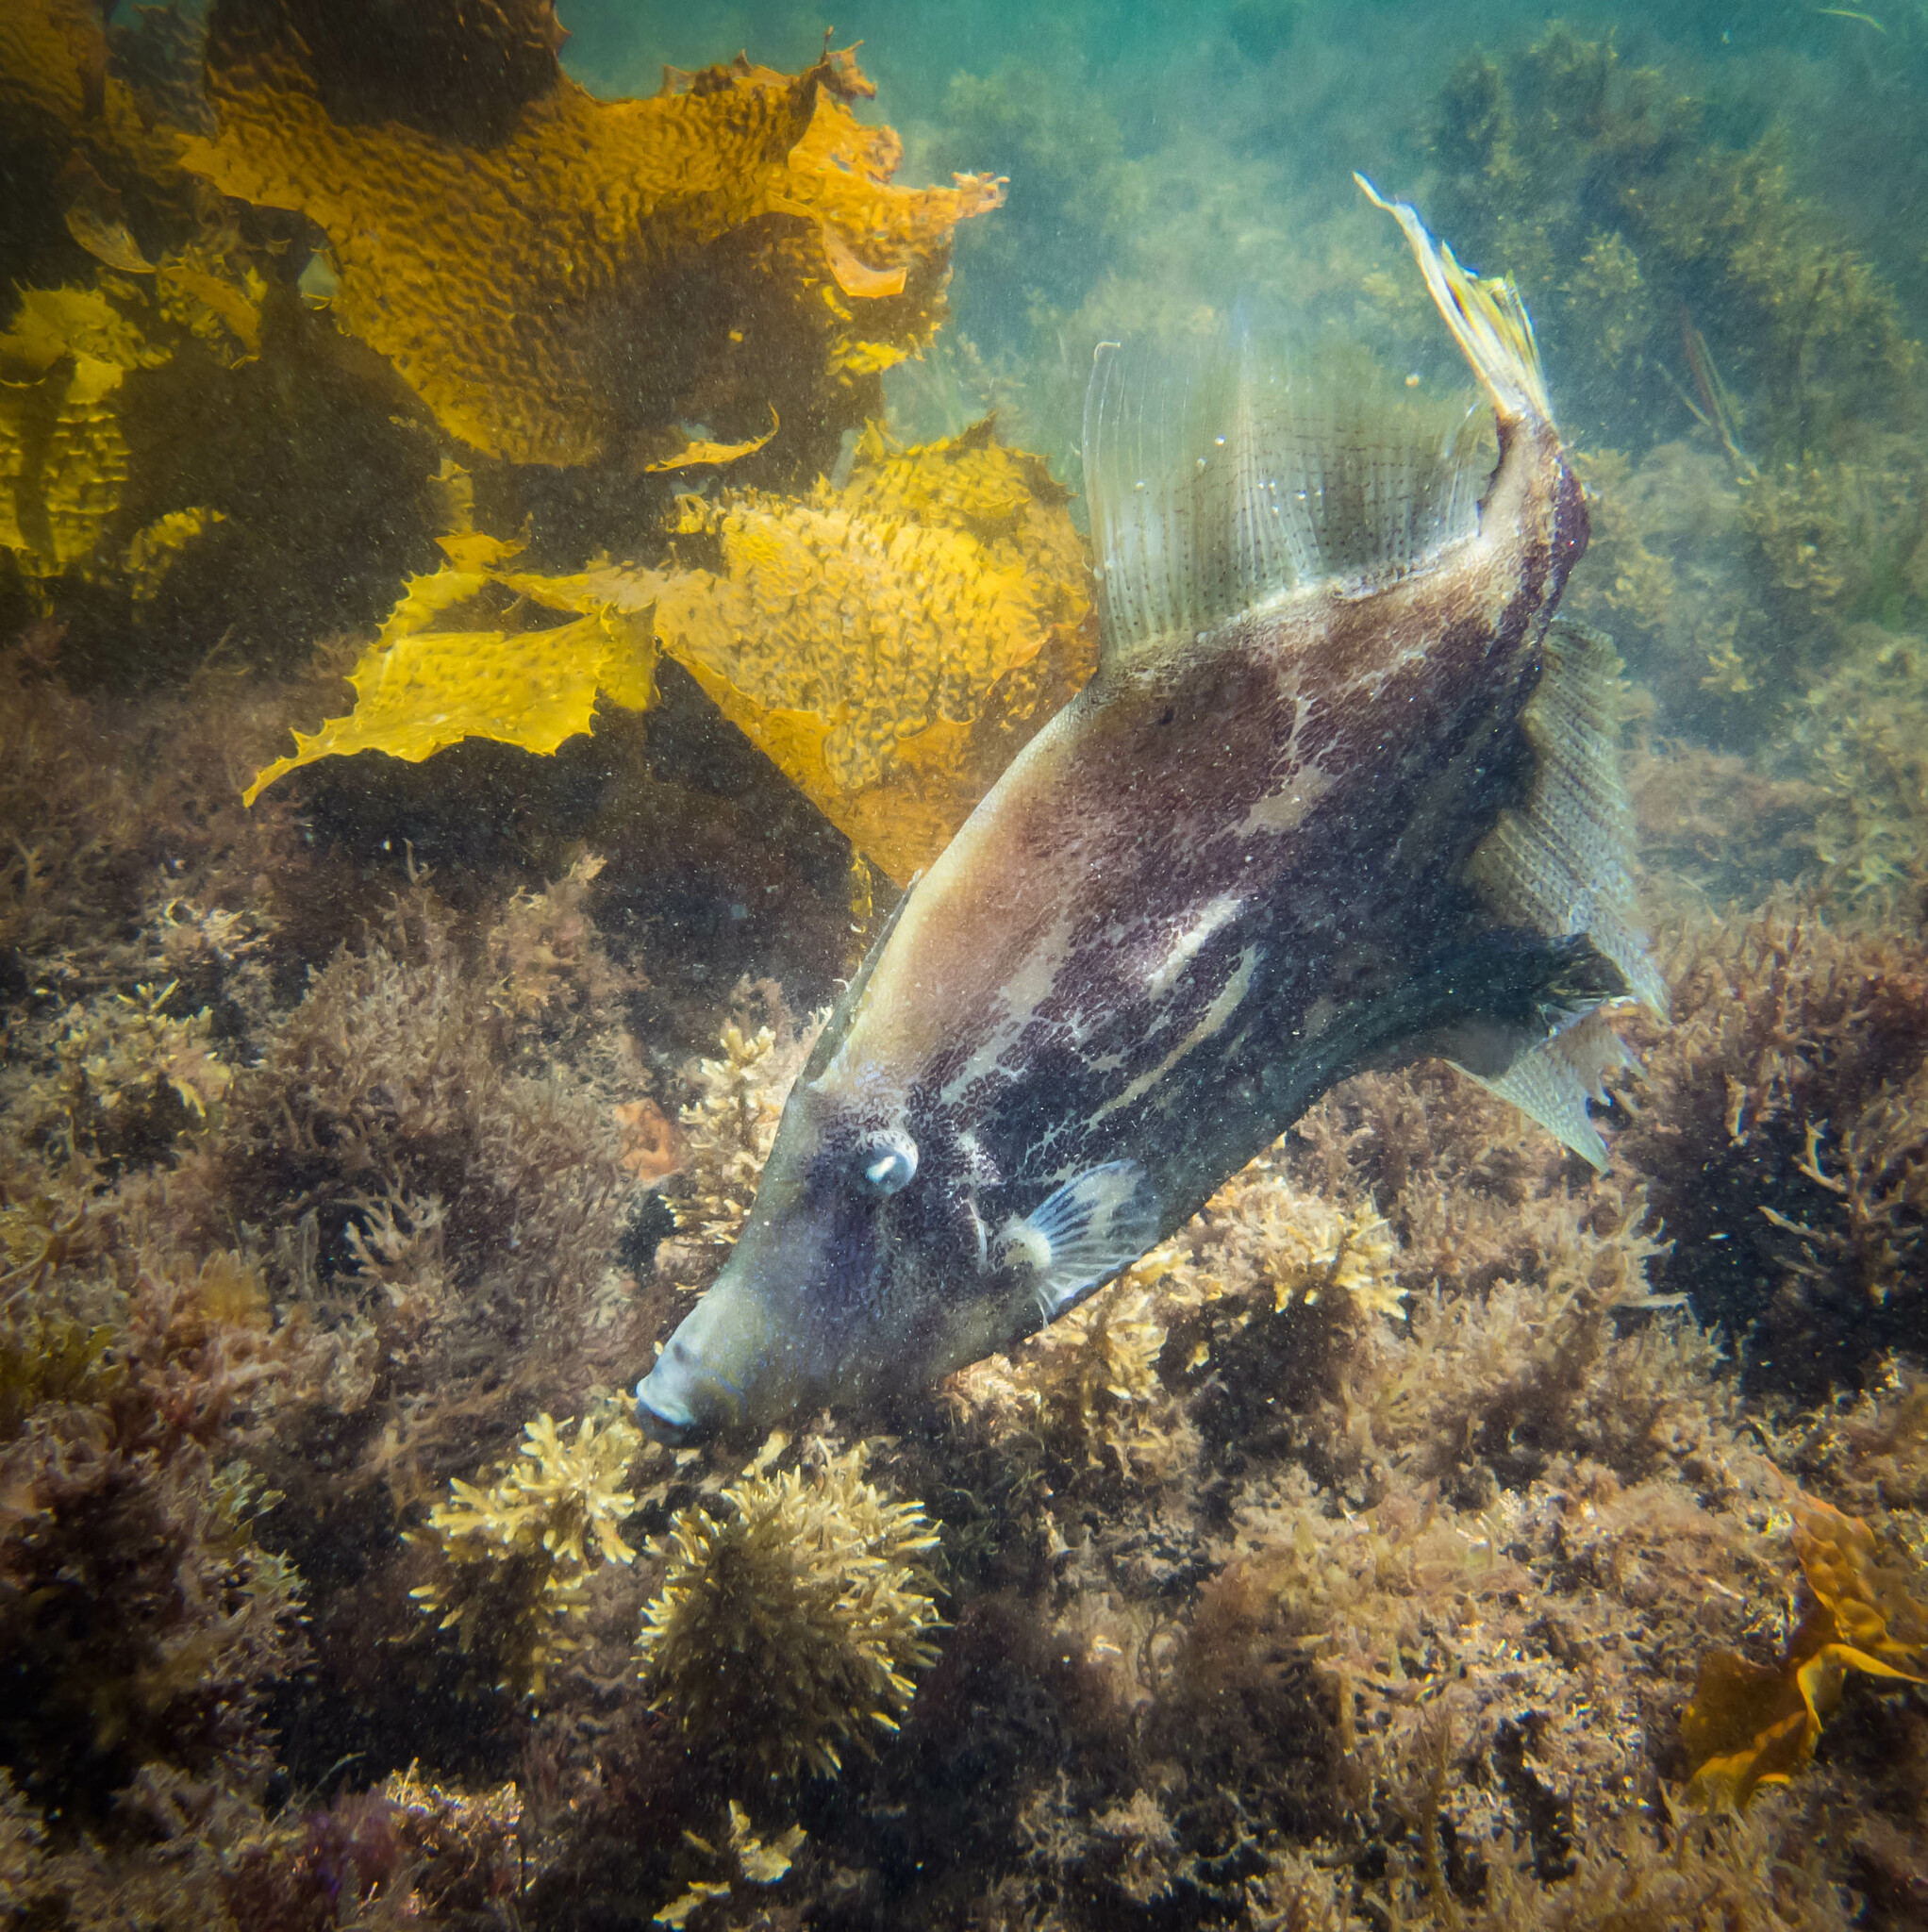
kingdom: Animalia
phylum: Chordata
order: Tetraodontiformes
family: Monacanthidae
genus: Monacanthus
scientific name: Monacanthus chinensis
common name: Centreboard leatherjacket
